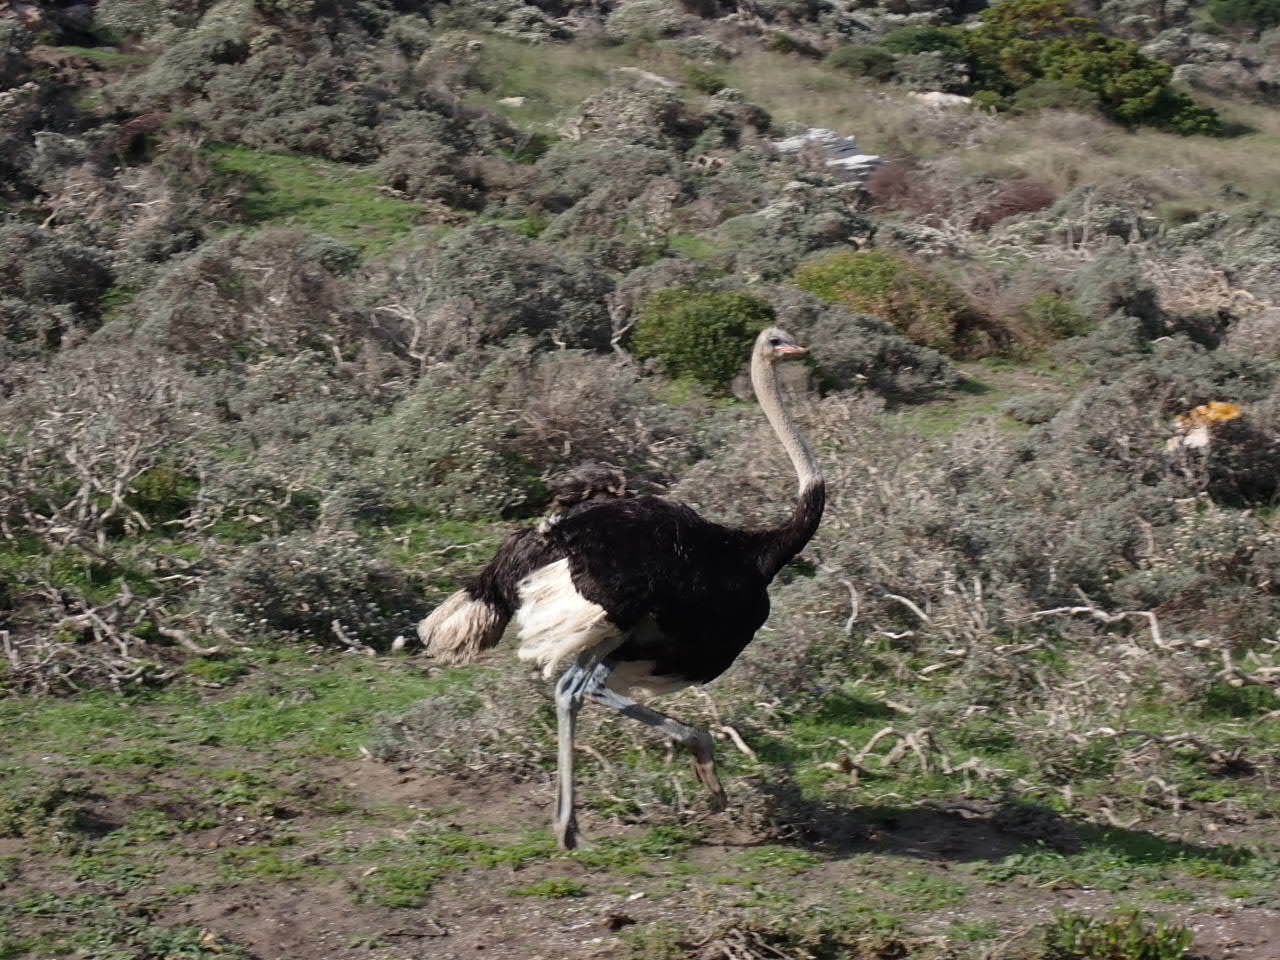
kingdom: Animalia
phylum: Chordata
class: Aves
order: Struthioniformes
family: Struthionidae
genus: Struthio
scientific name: Struthio camelus
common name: Common ostrich
